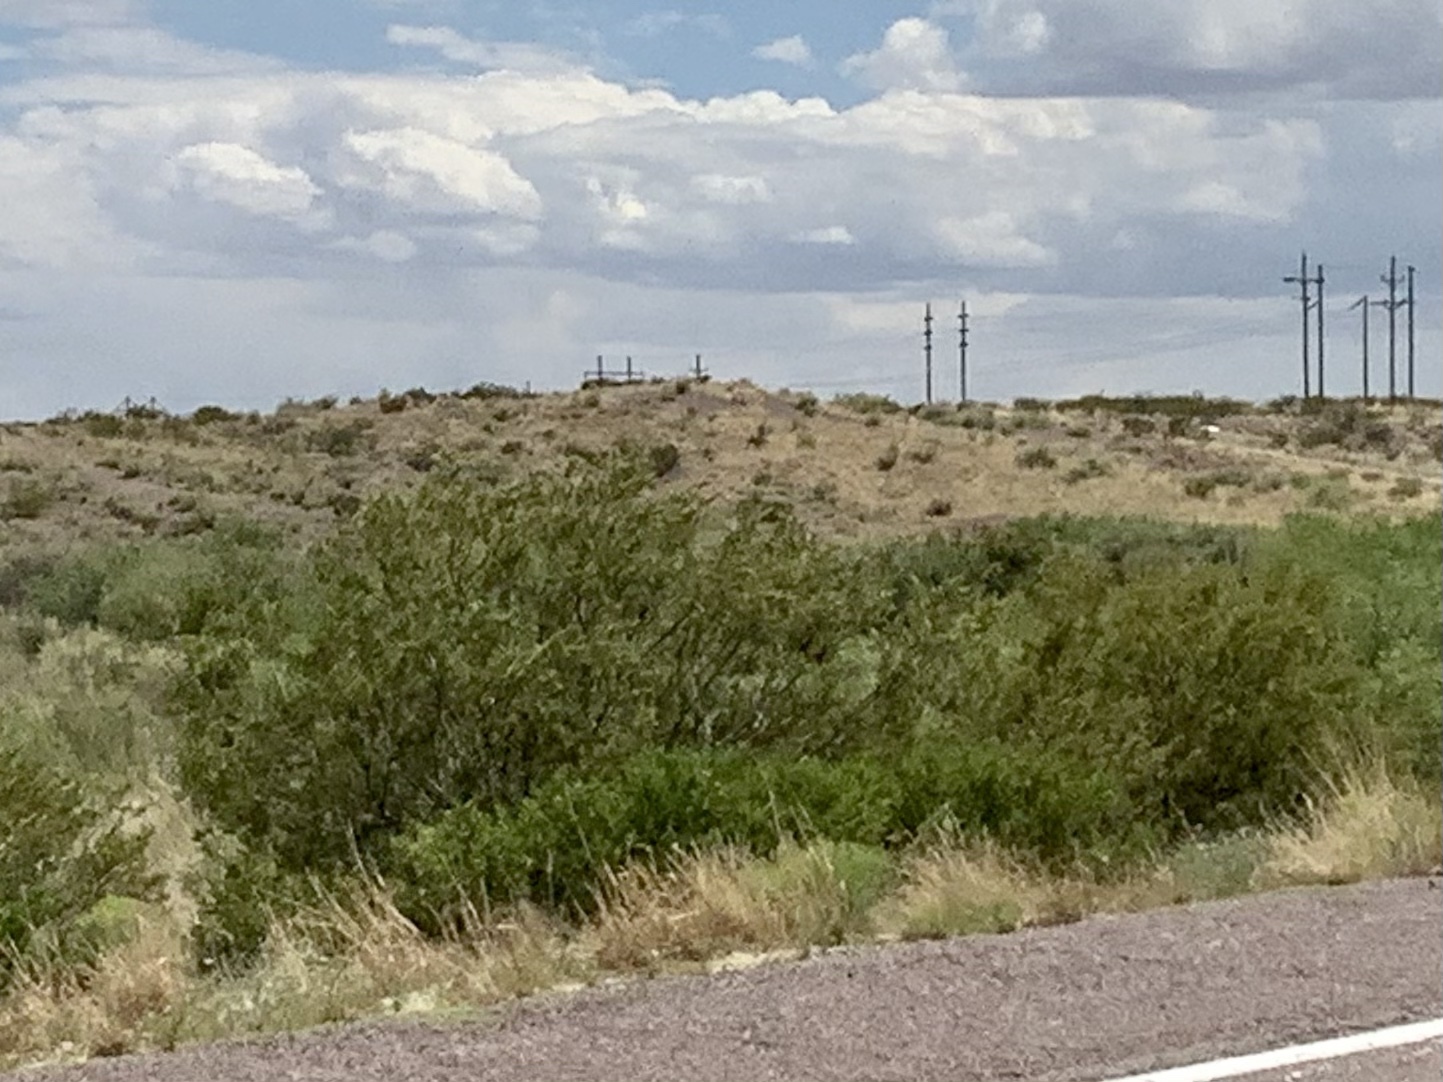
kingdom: Plantae
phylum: Tracheophyta
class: Magnoliopsida
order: Zygophyllales
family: Zygophyllaceae
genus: Larrea
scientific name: Larrea tridentata
